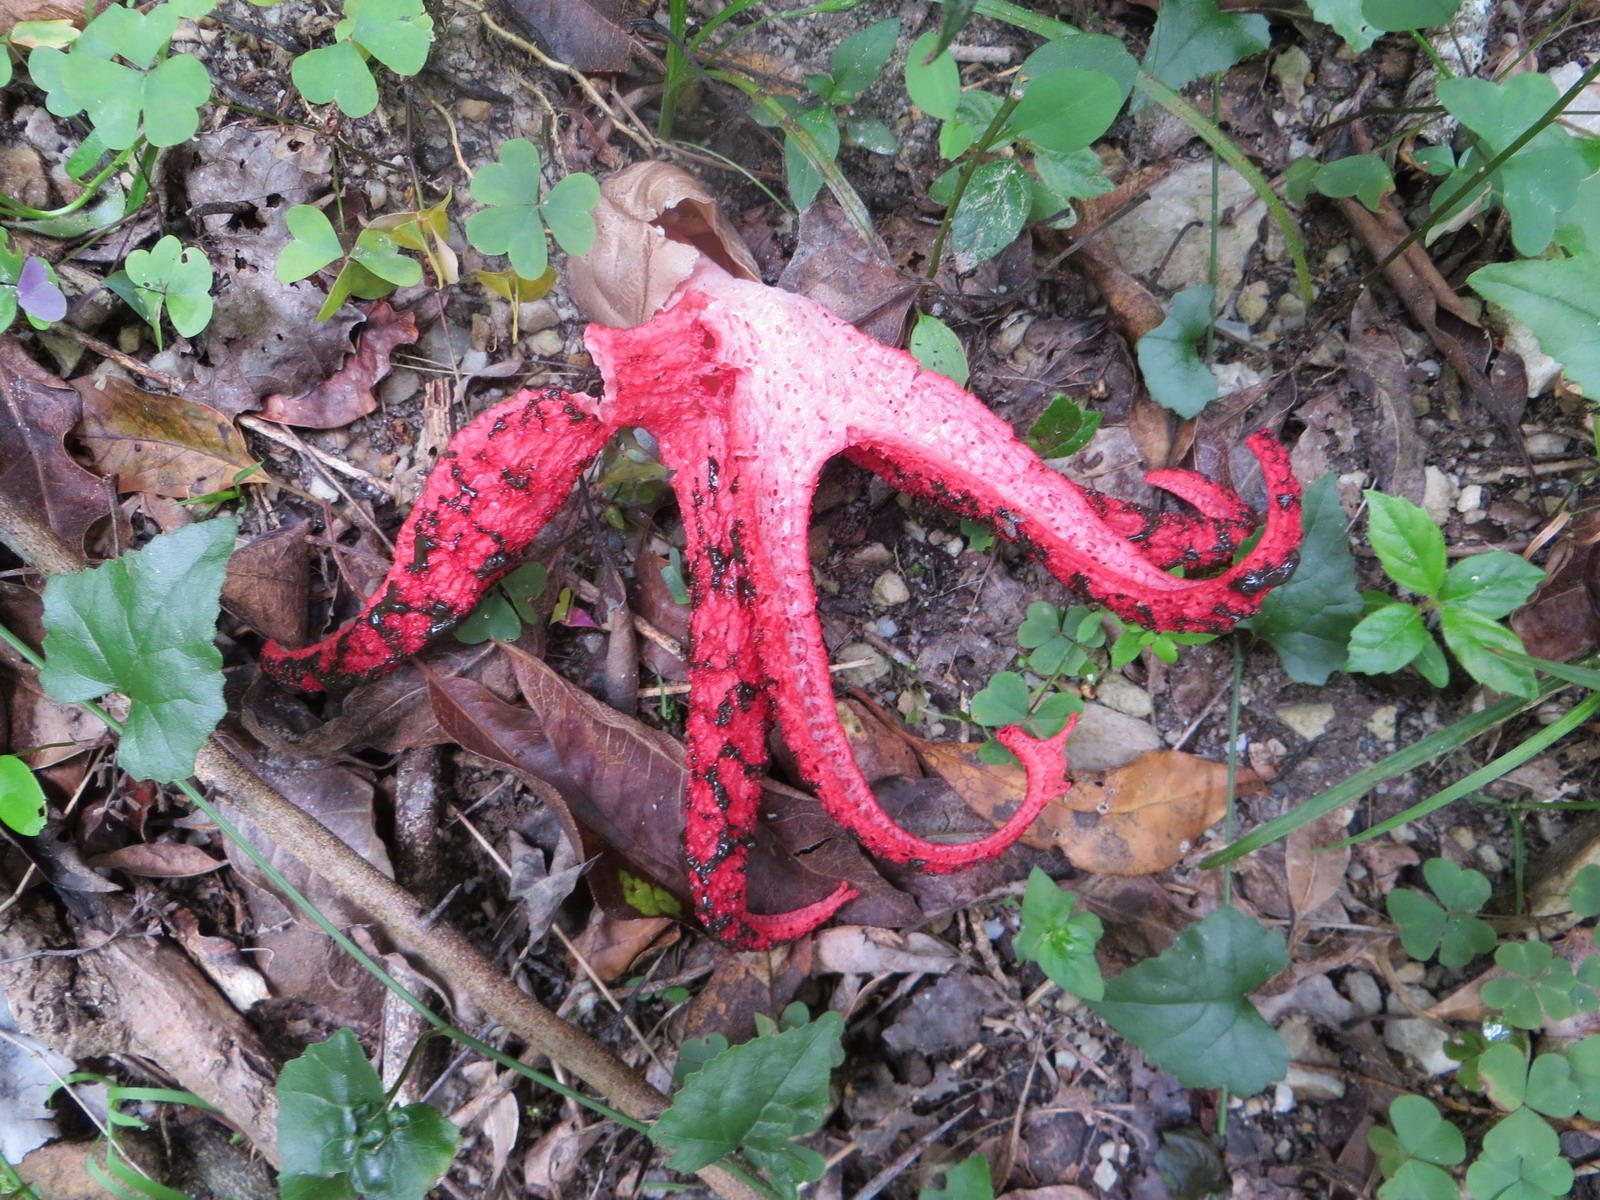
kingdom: Fungi
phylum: Basidiomycota
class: Agaricomycetes
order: Phallales
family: Phallaceae
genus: Clathrus
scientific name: Clathrus archeri
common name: Devil's fingers
